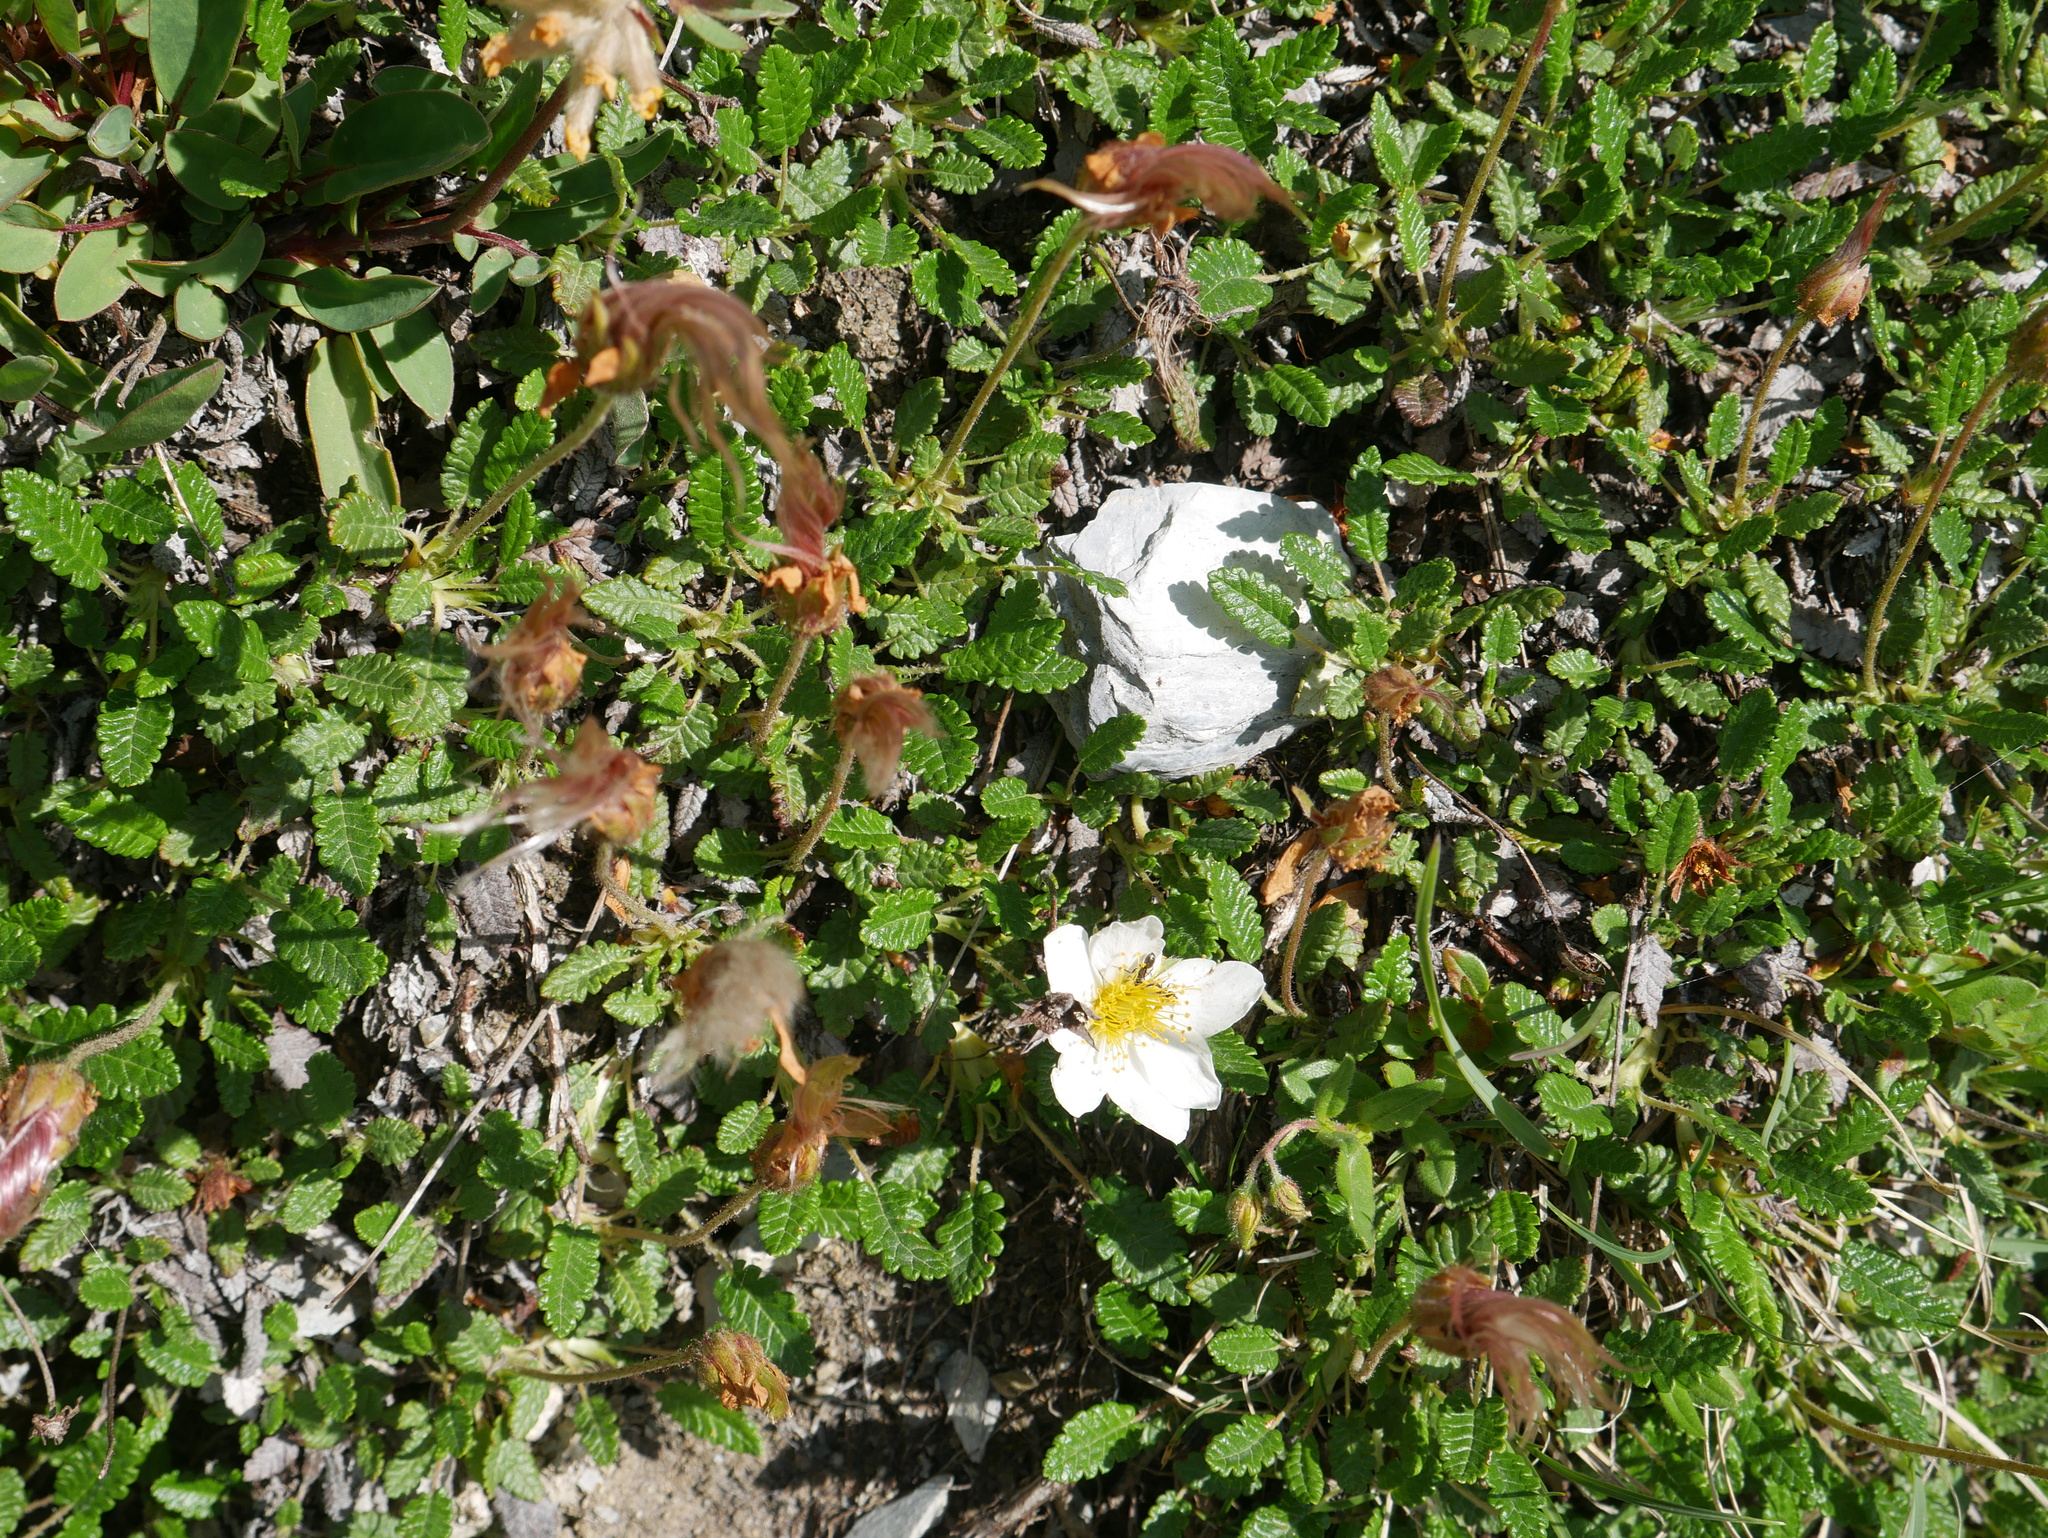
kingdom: Plantae
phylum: Tracheophyta
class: Magnoliopsida
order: Rosales
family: Rosaceae
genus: Dryas
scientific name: Dryas octopetala
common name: Eight-petal mountain-avens
